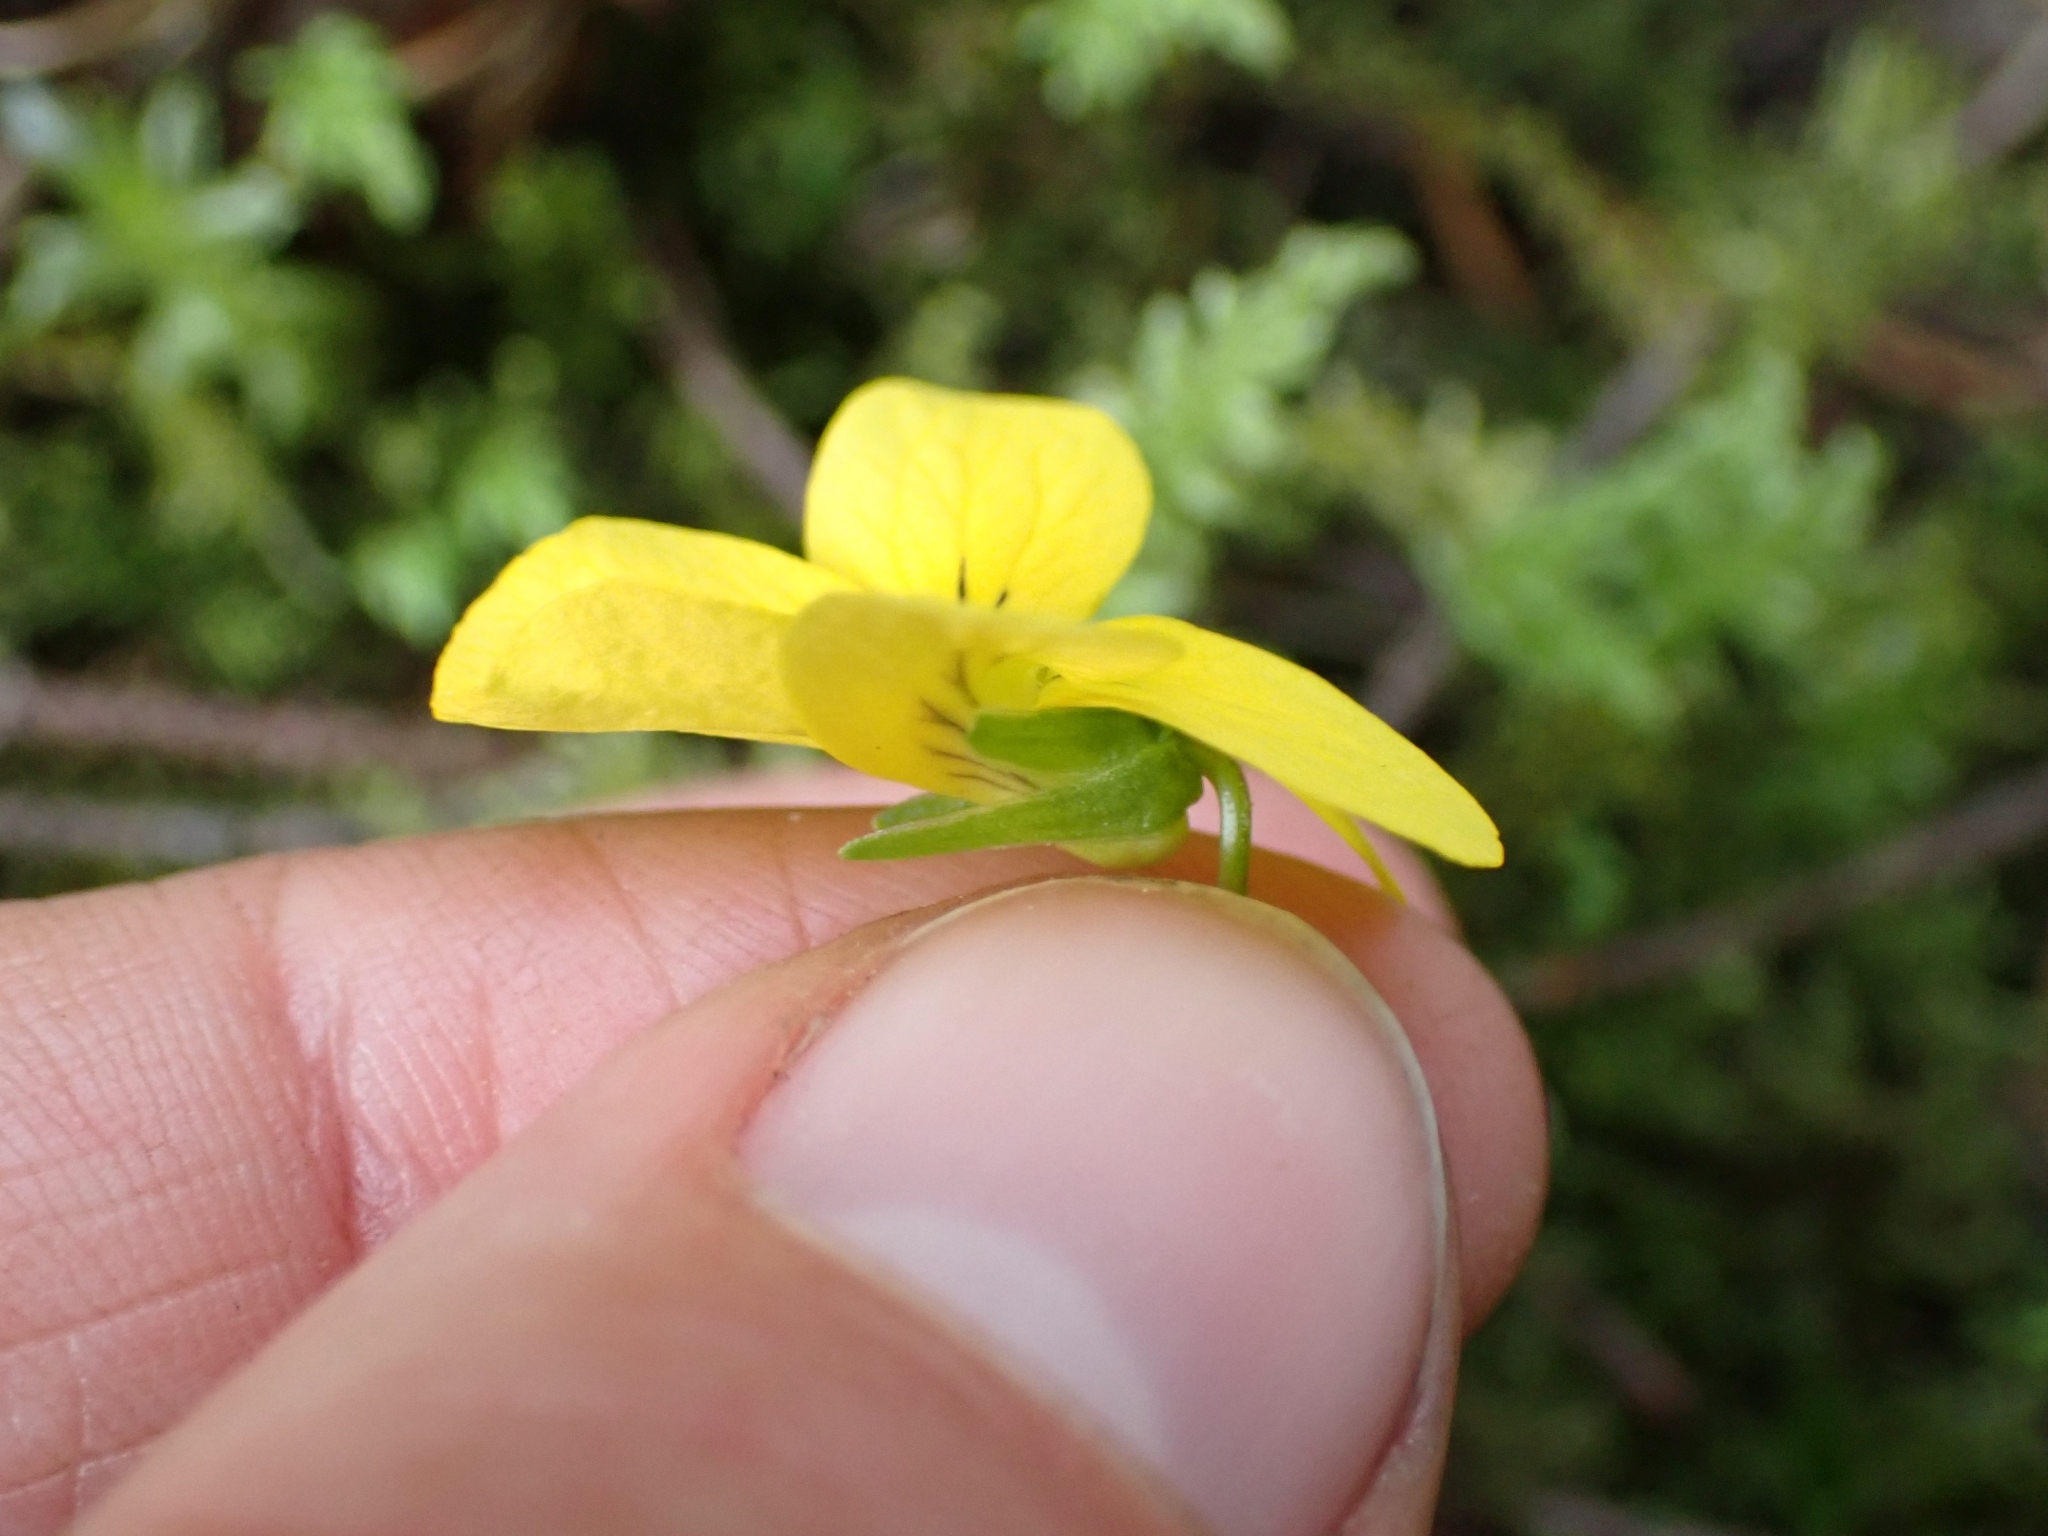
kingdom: Plantae
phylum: Tracheophyta
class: Magnoliopsida
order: Malpighiales
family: Violaceae
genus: Viola
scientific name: Viola glabella
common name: Stream violet
